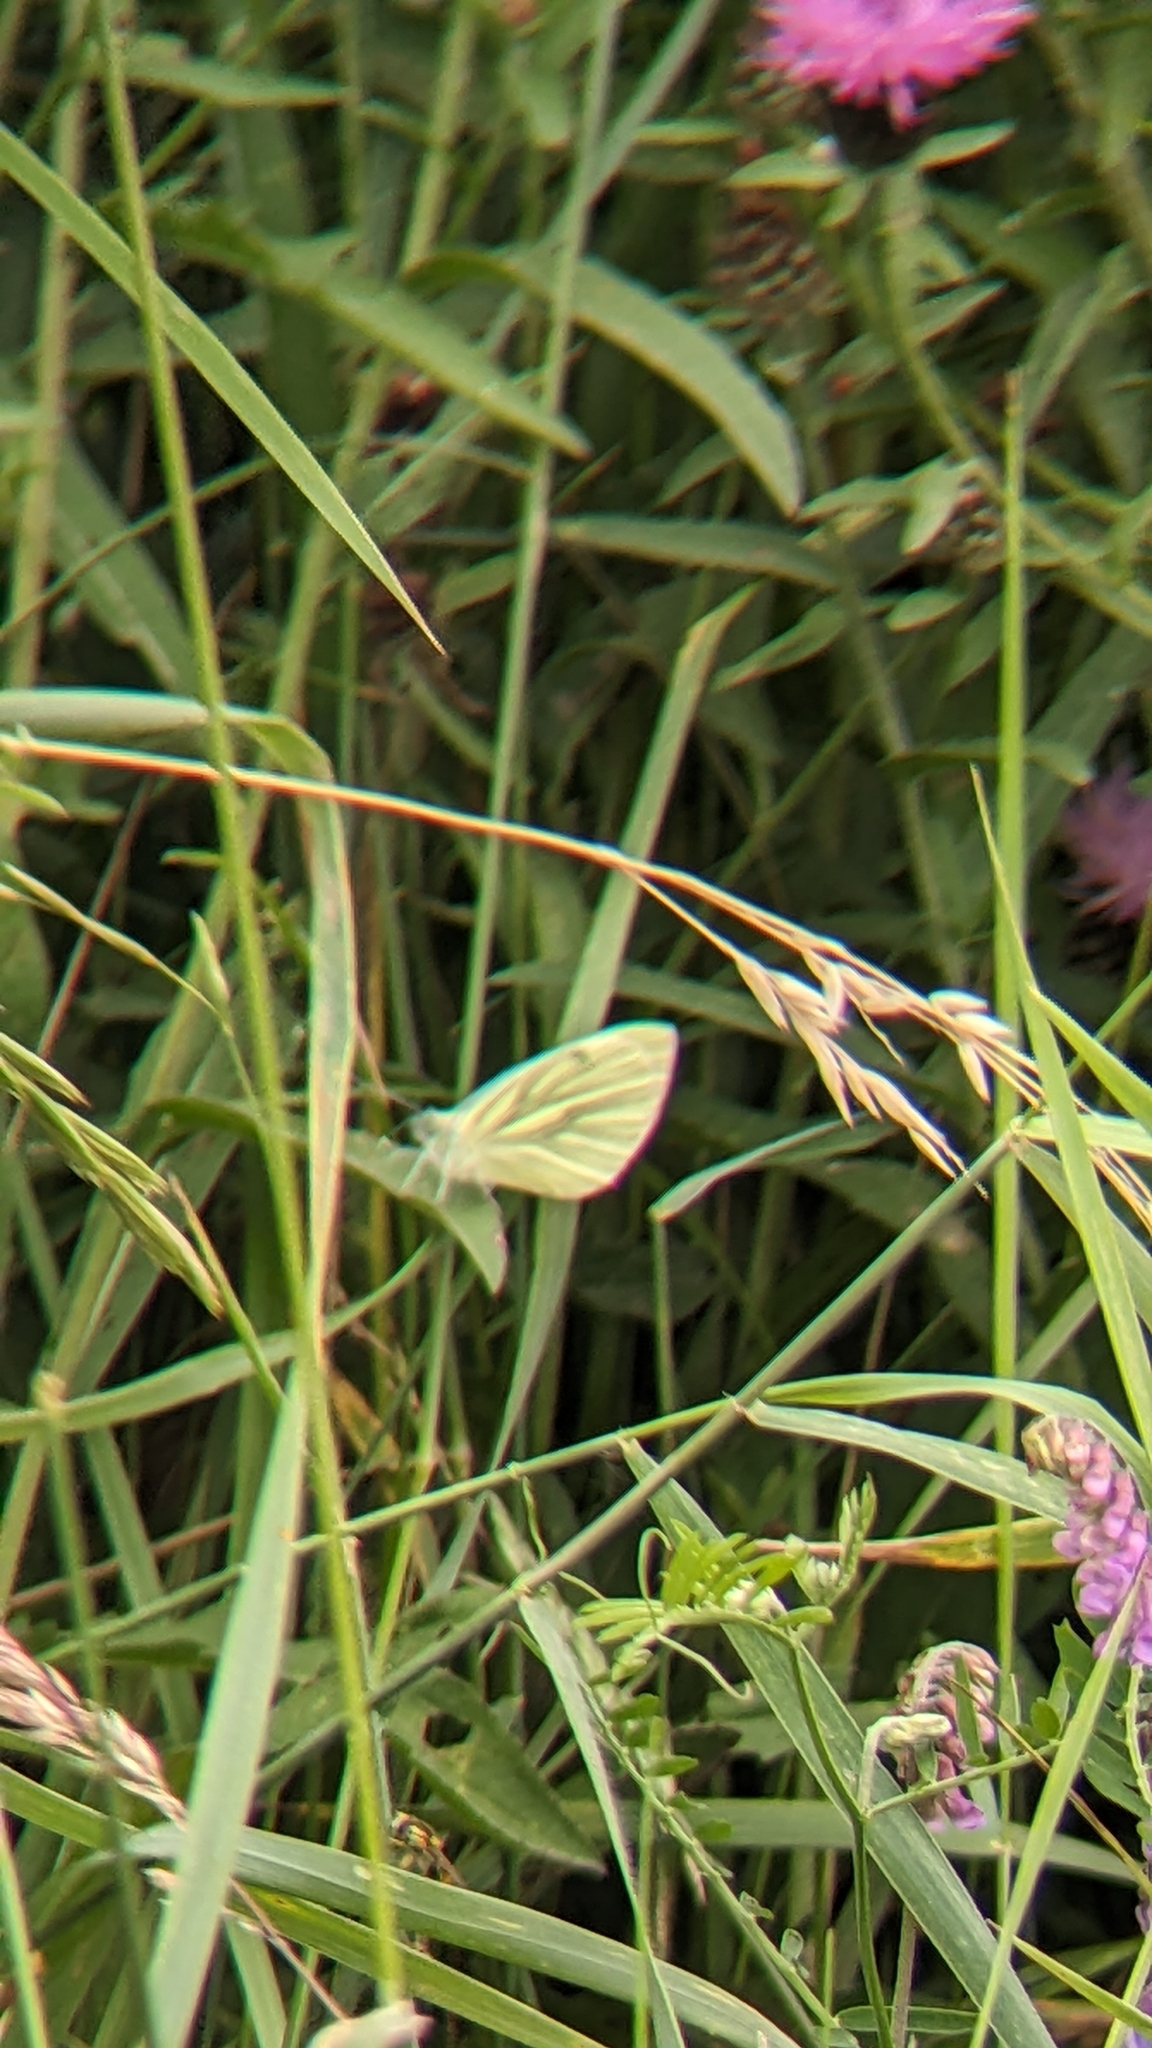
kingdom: Animalia
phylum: Arthropoda
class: Insecta
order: Lepidoptera
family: Pieridae
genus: Pieris
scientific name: Pieris napi
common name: Green-veined white
